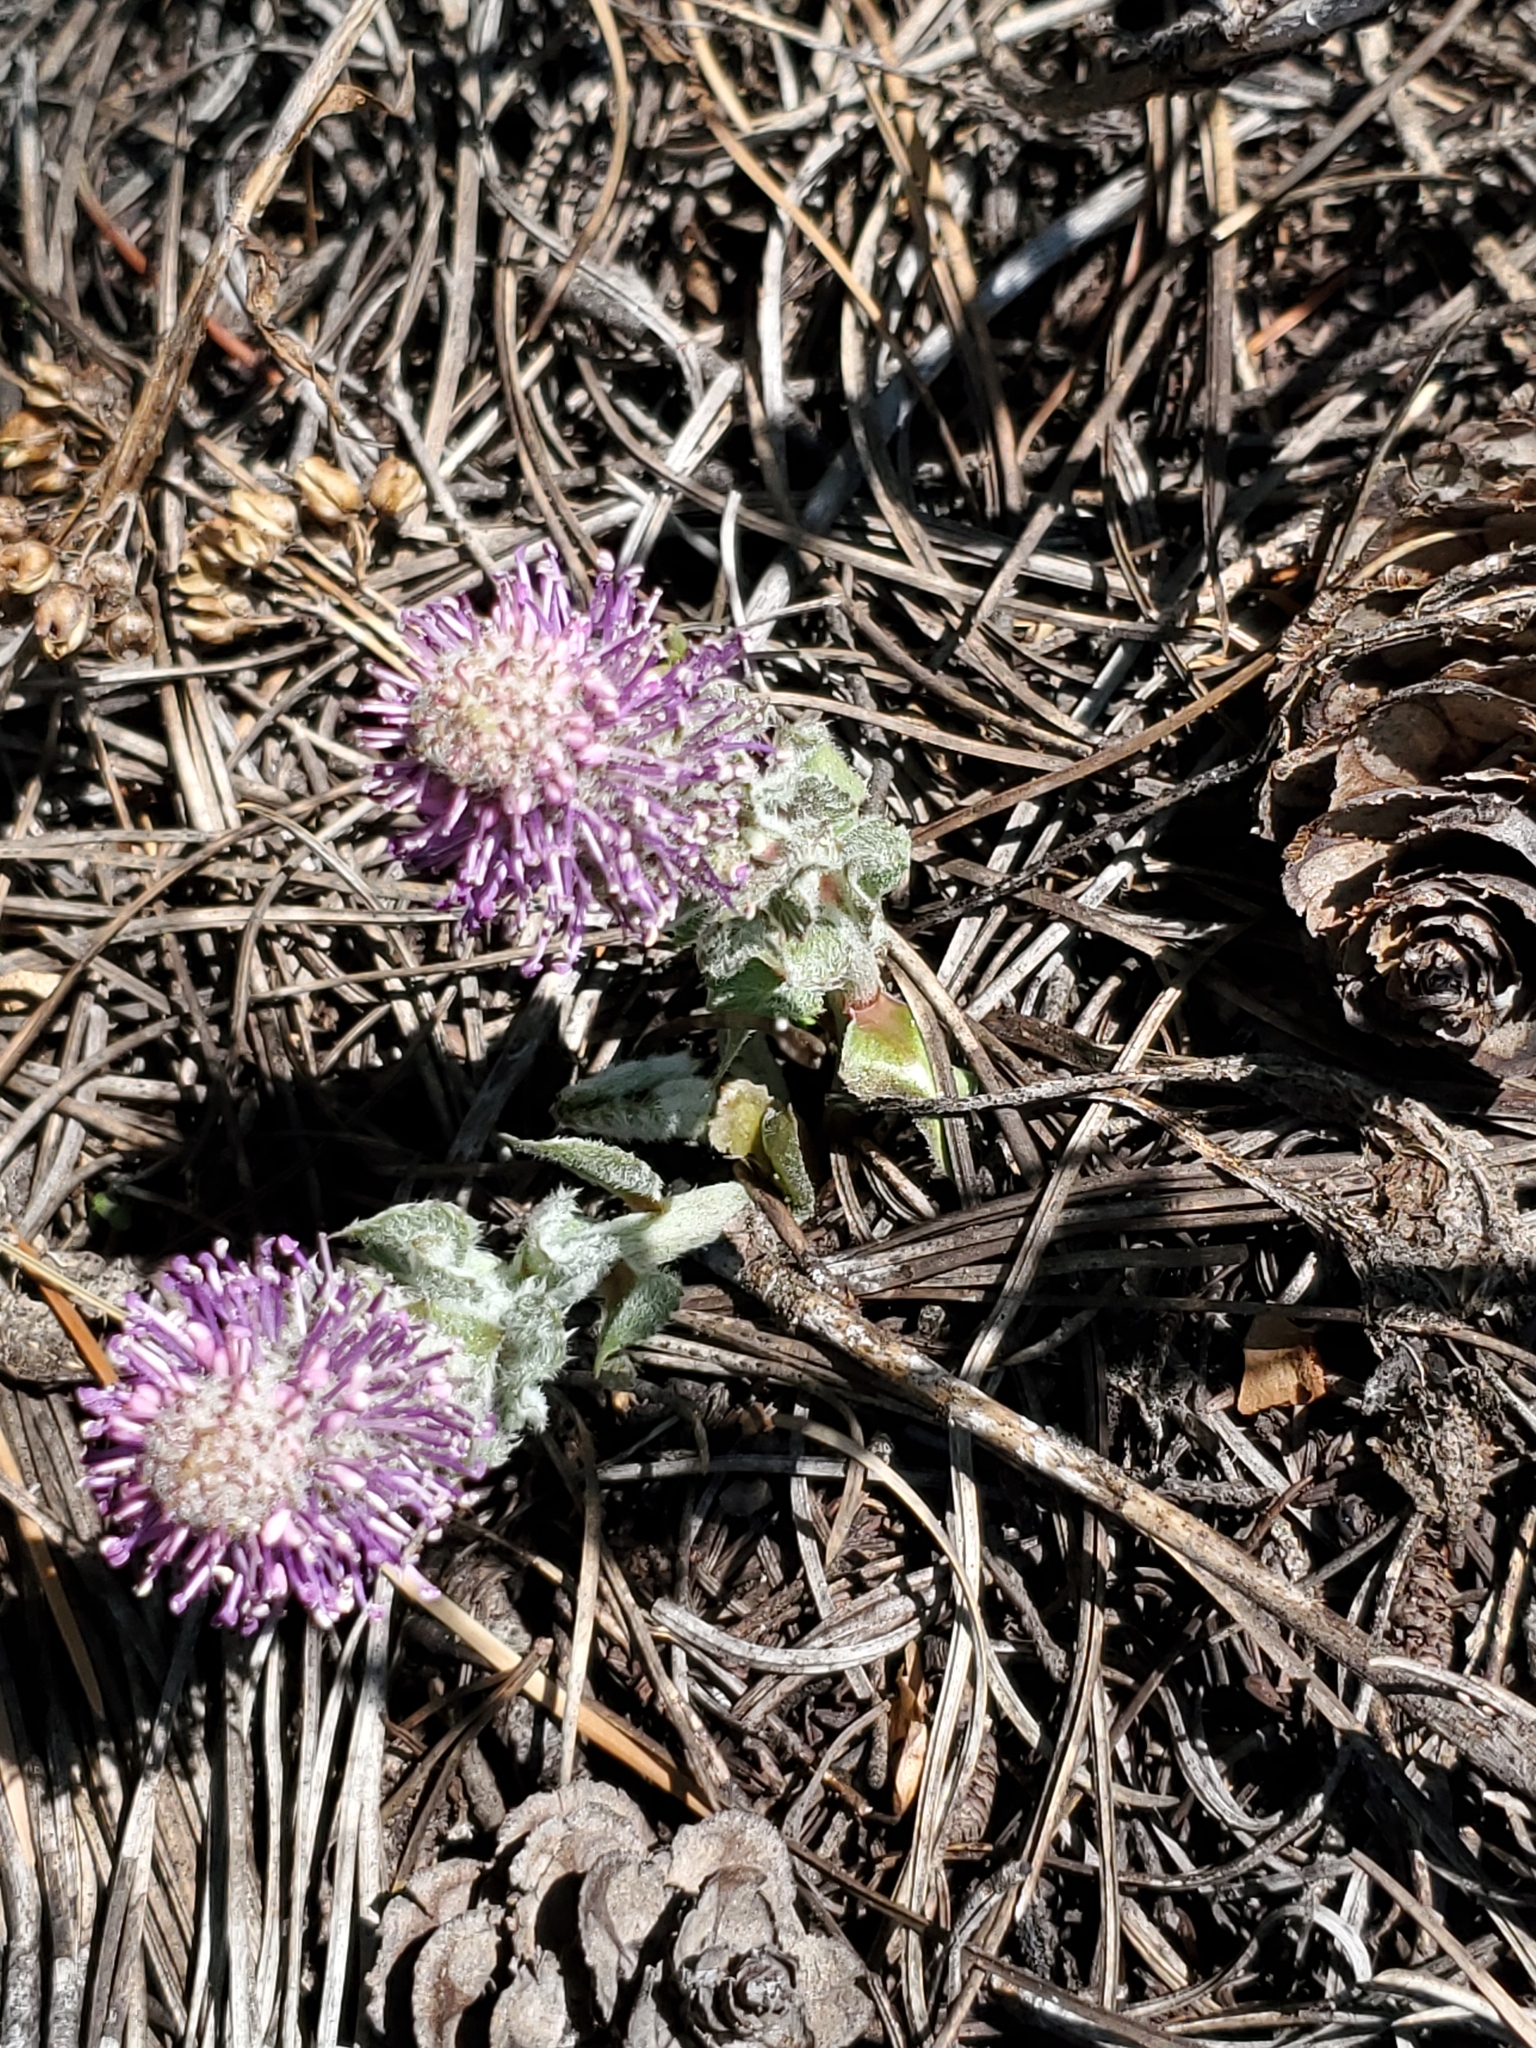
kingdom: Plantae
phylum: Tracheophyta
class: Magnoliopsida
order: Lamiales
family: Plantaginaceae
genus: Synthyris
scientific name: Synthyris wyomingensis
